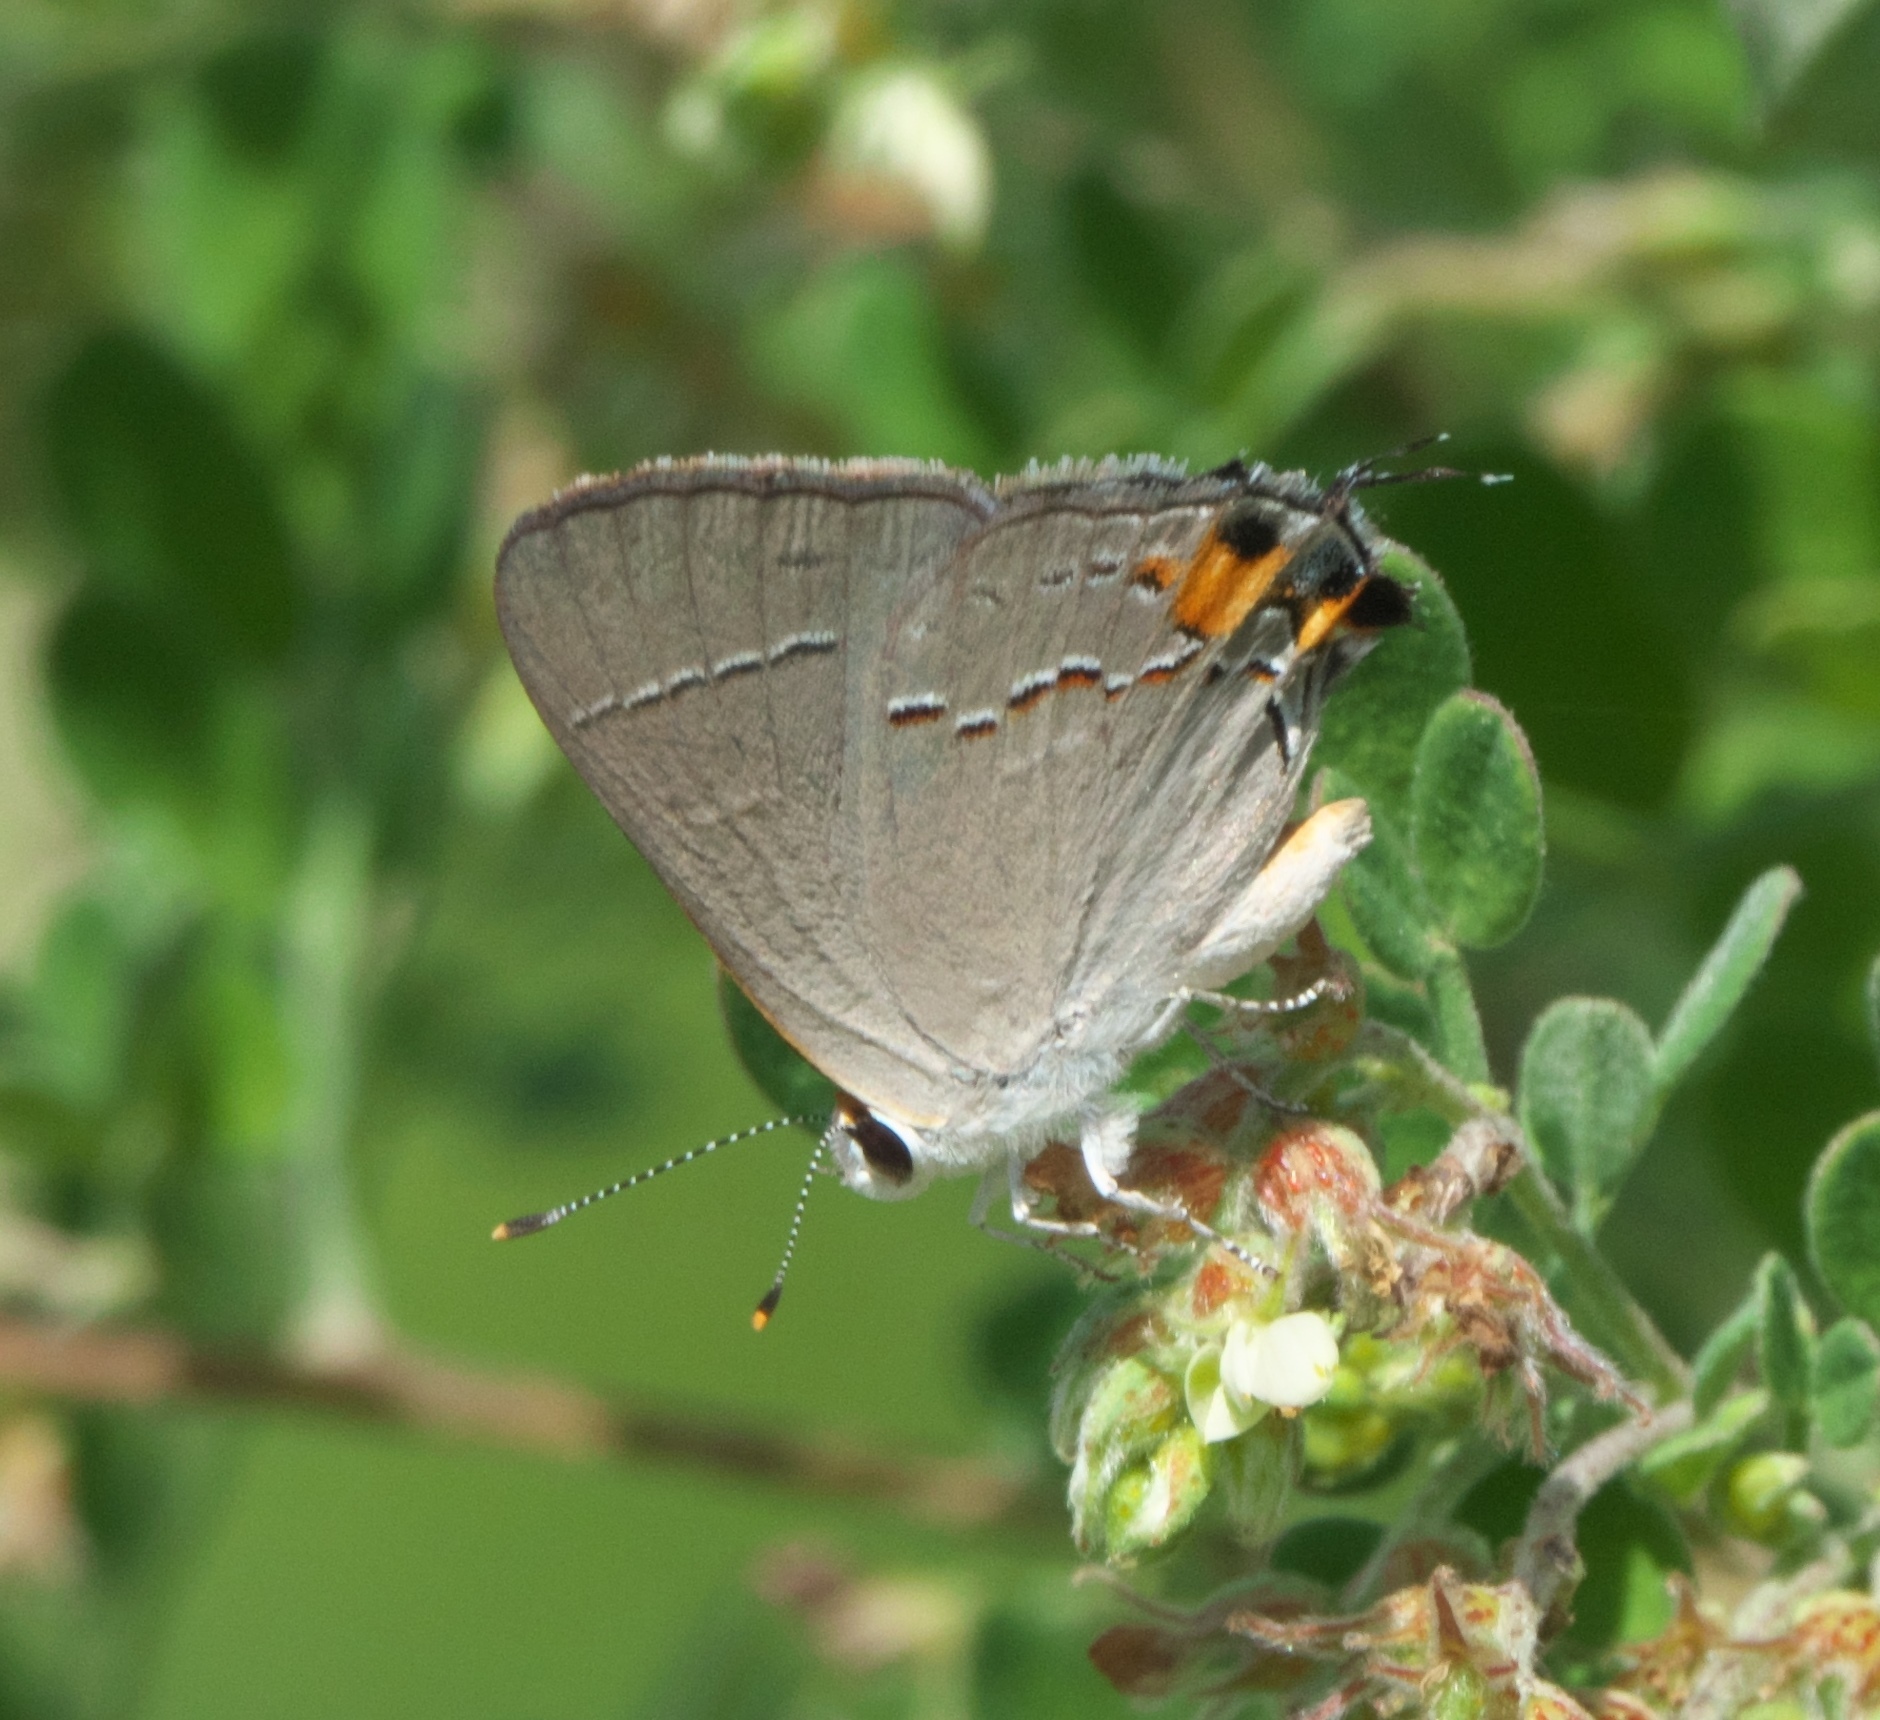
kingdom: Animalia
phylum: Arthropoda
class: Insecta
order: Lepidoptera
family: Lycaenidae
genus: Strymon
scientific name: Strymon melinus
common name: Gray hairstreak
